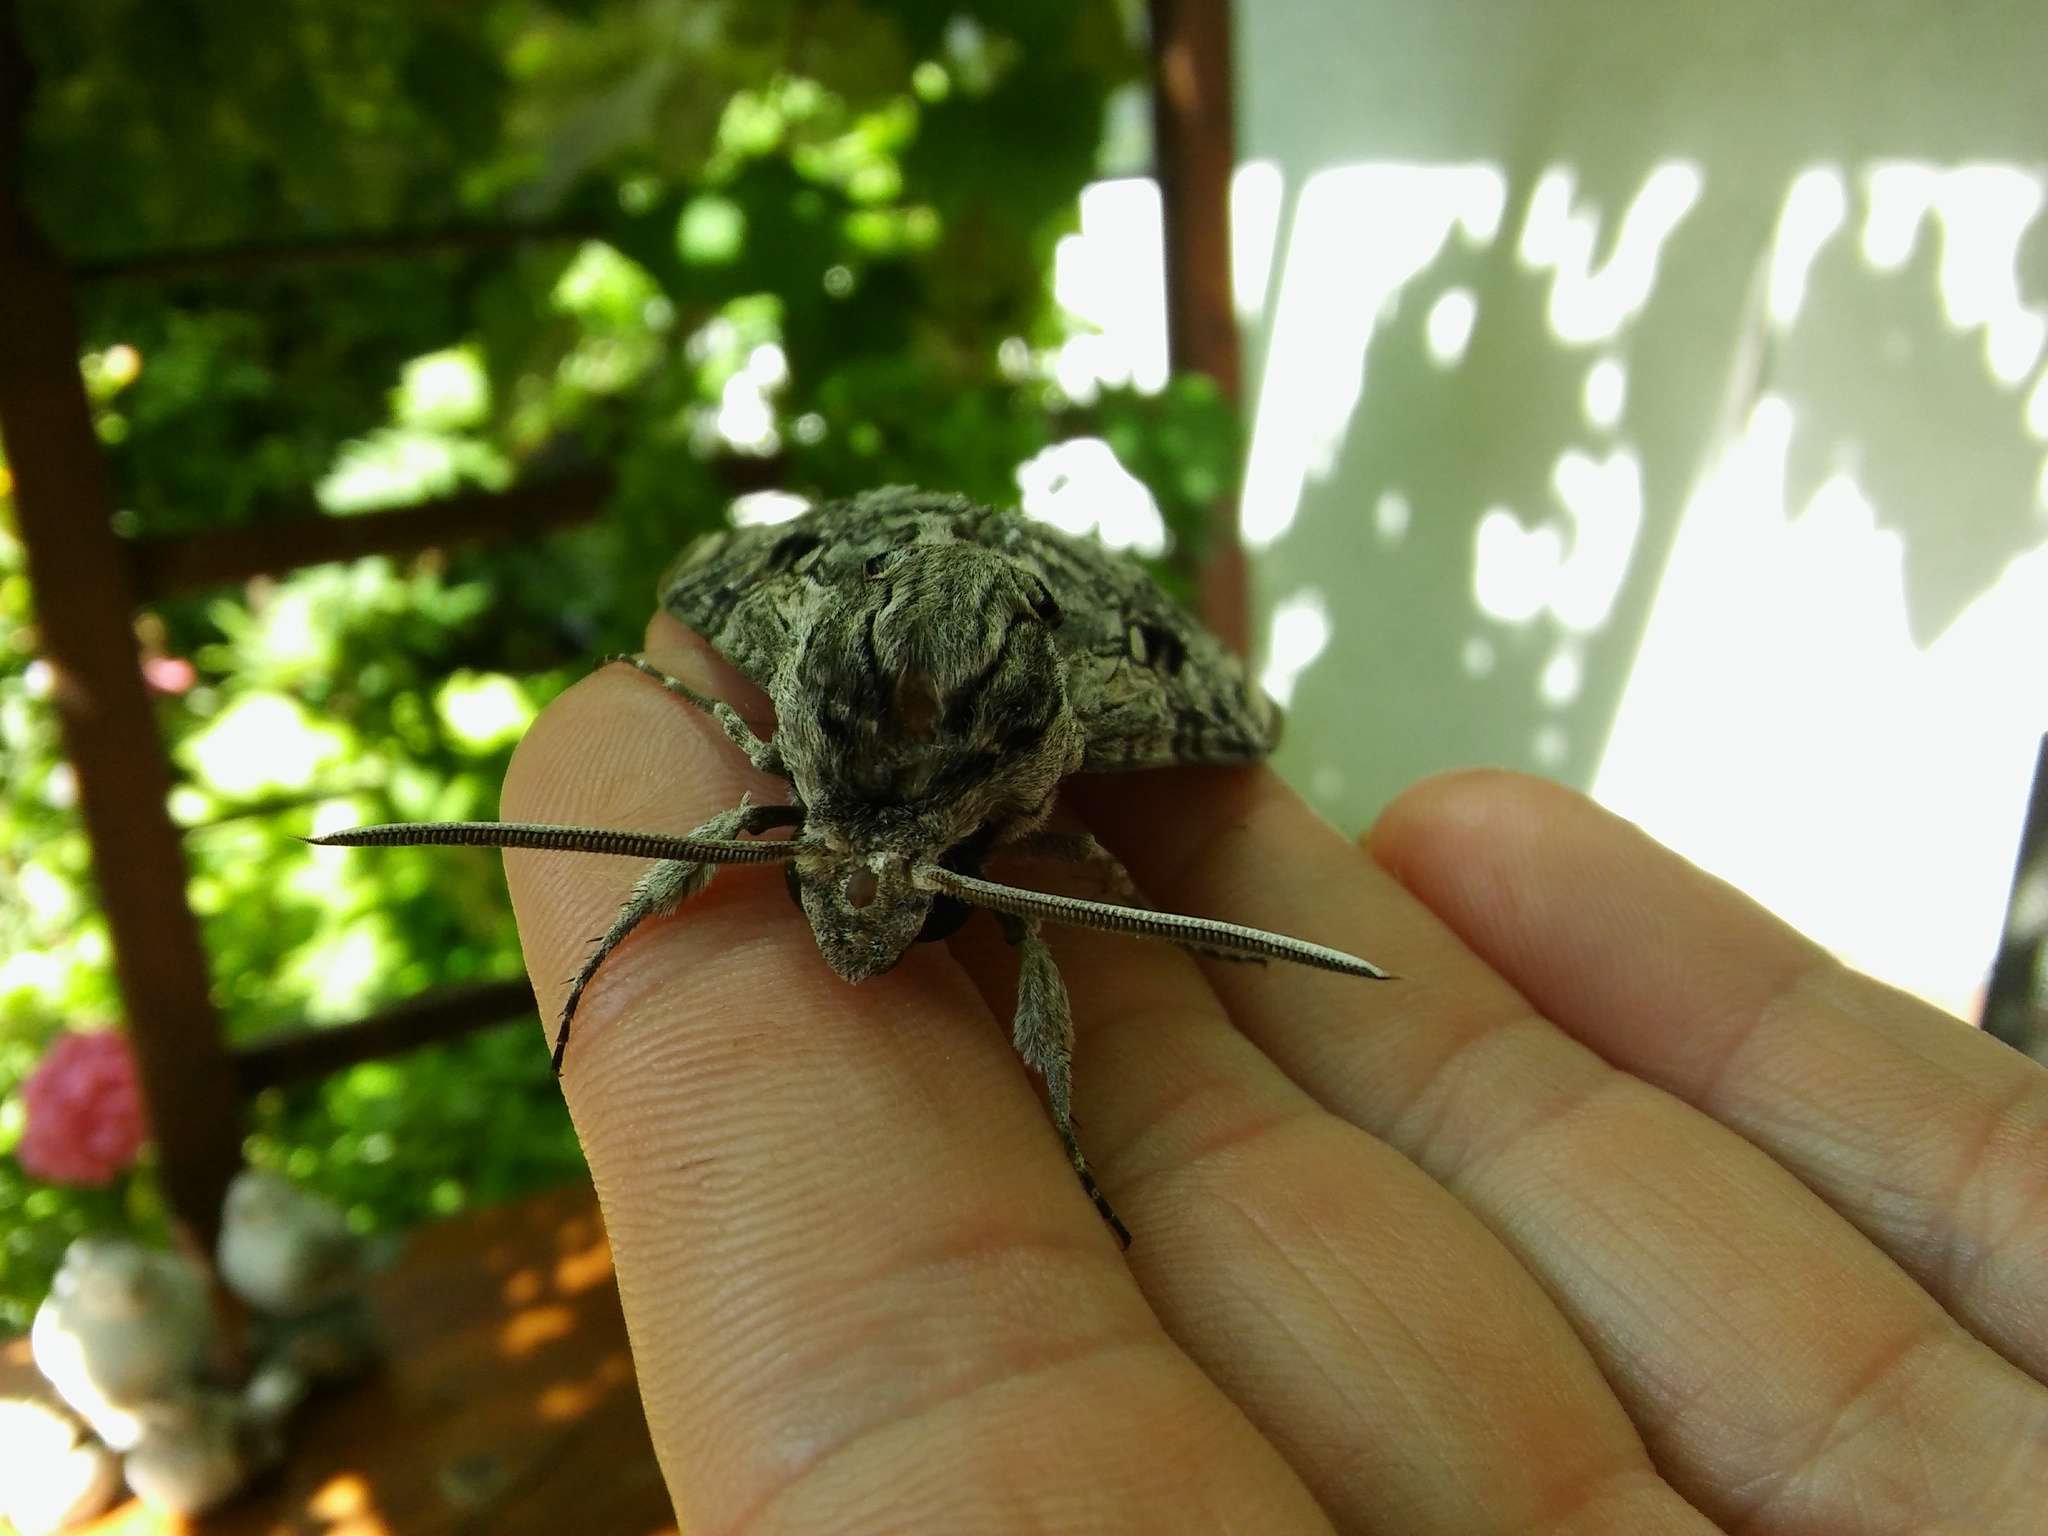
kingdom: Animalia
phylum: Arthropoda
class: Insecta
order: Lepidoptera
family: Sphingidae
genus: Agrius
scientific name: Agrius convolvuli
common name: Convolvulus hawkmoth
